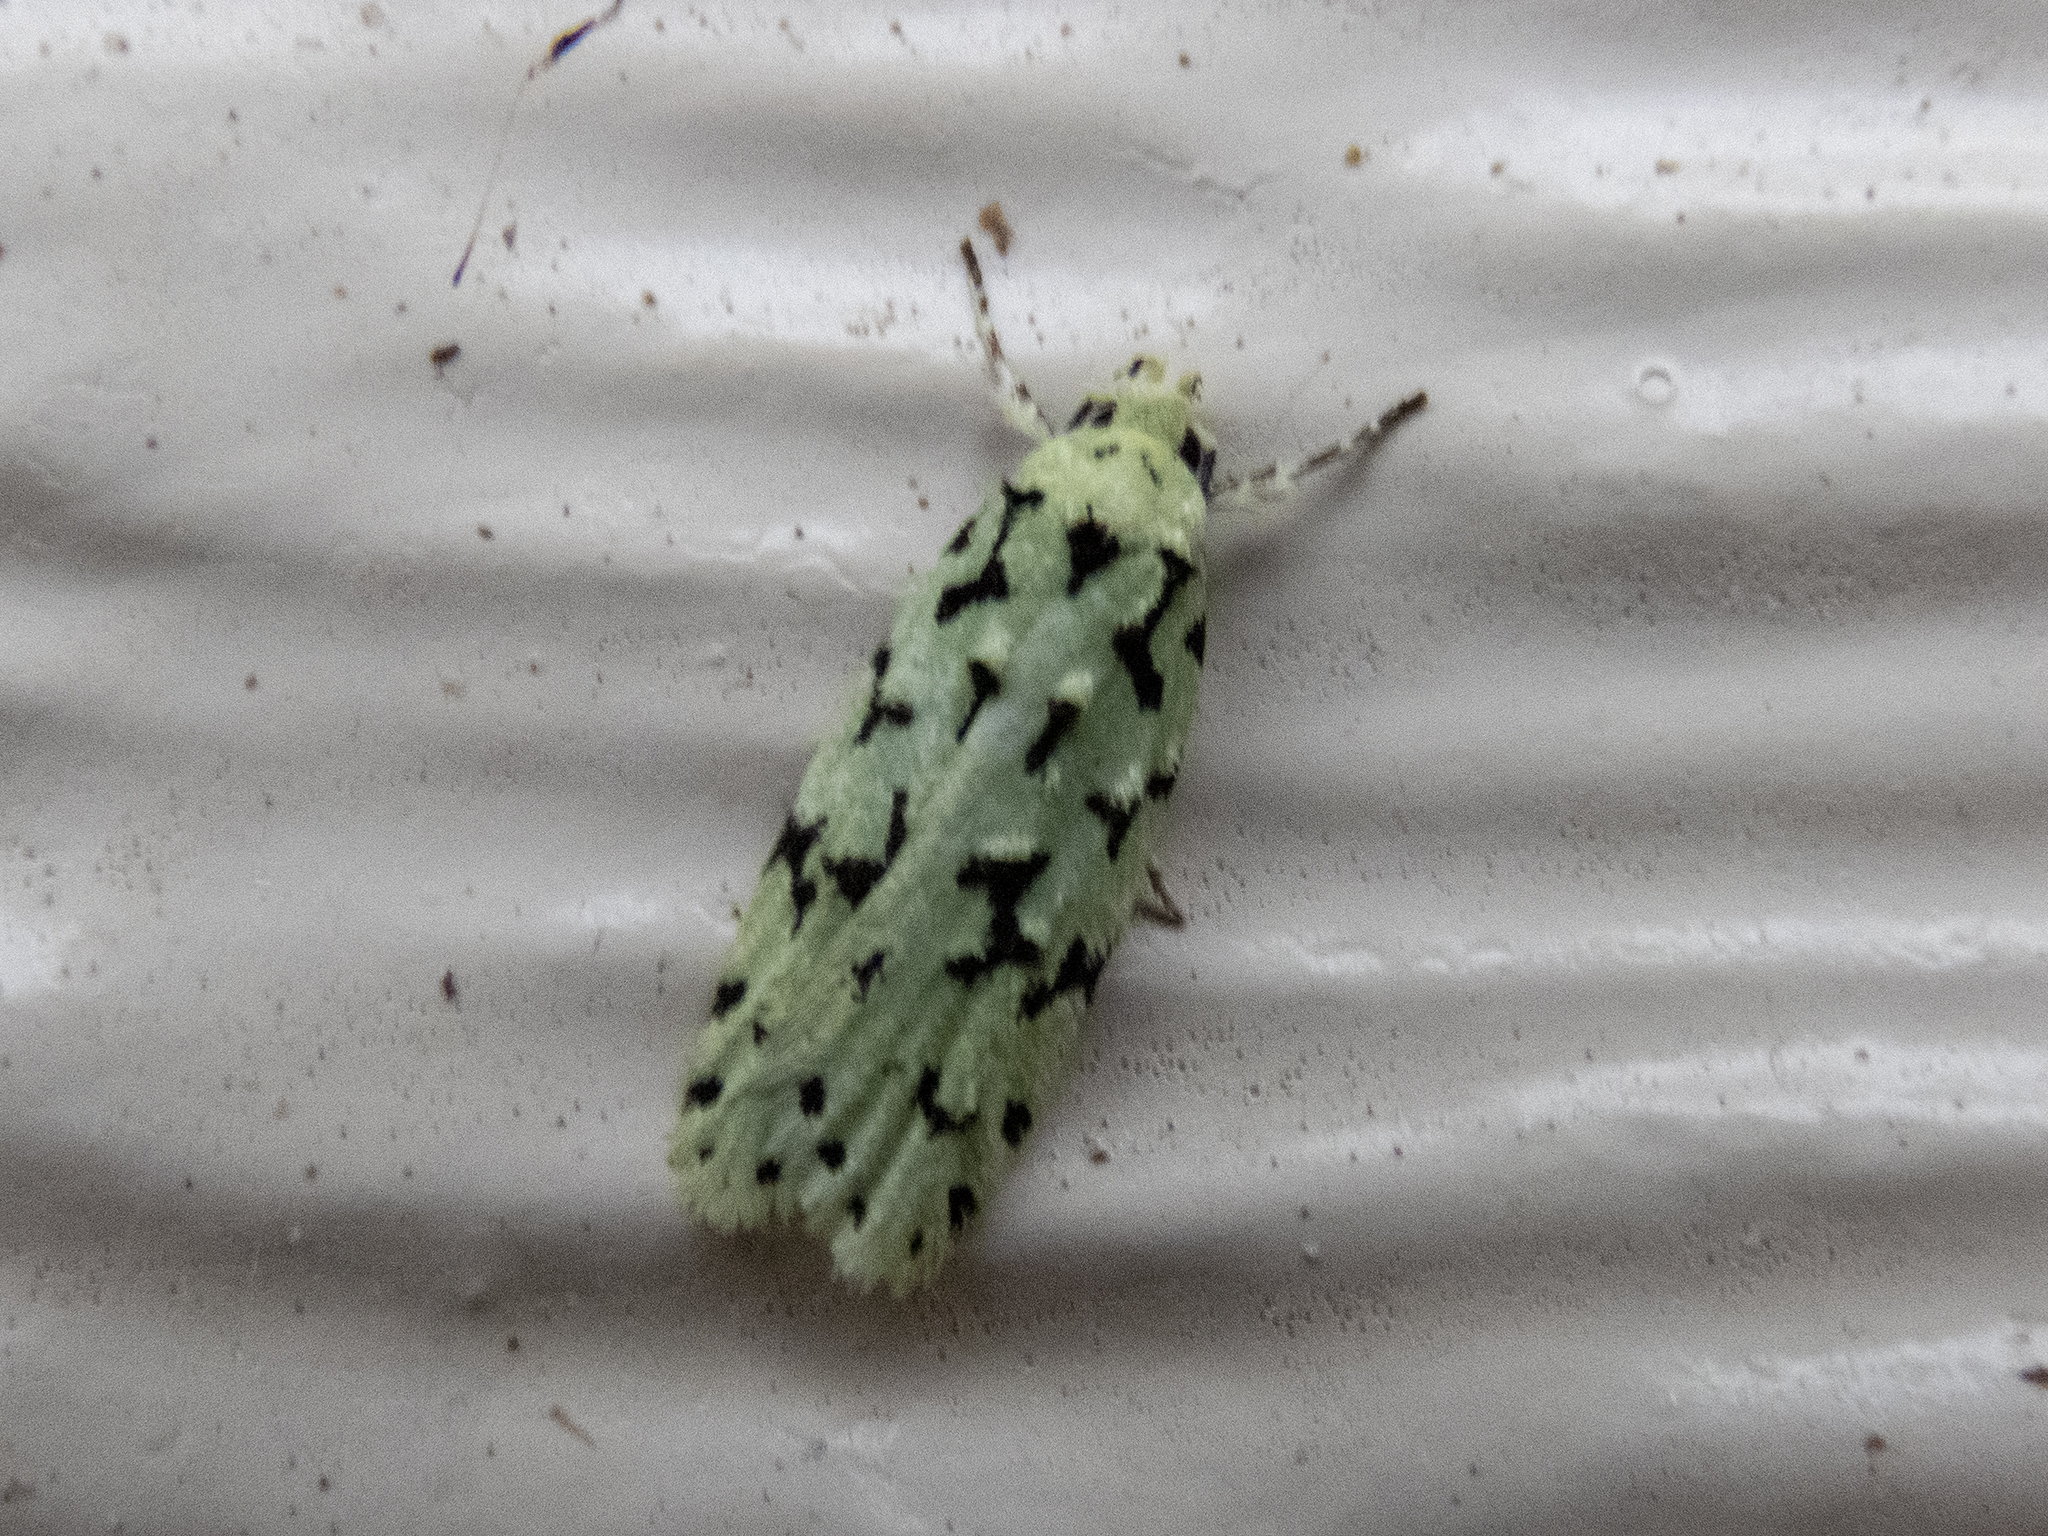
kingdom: Animalia
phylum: Arthropoda
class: Insecta
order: Lepidoptera
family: Oecophoridae
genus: Izatha
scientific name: Izatha huttoni
